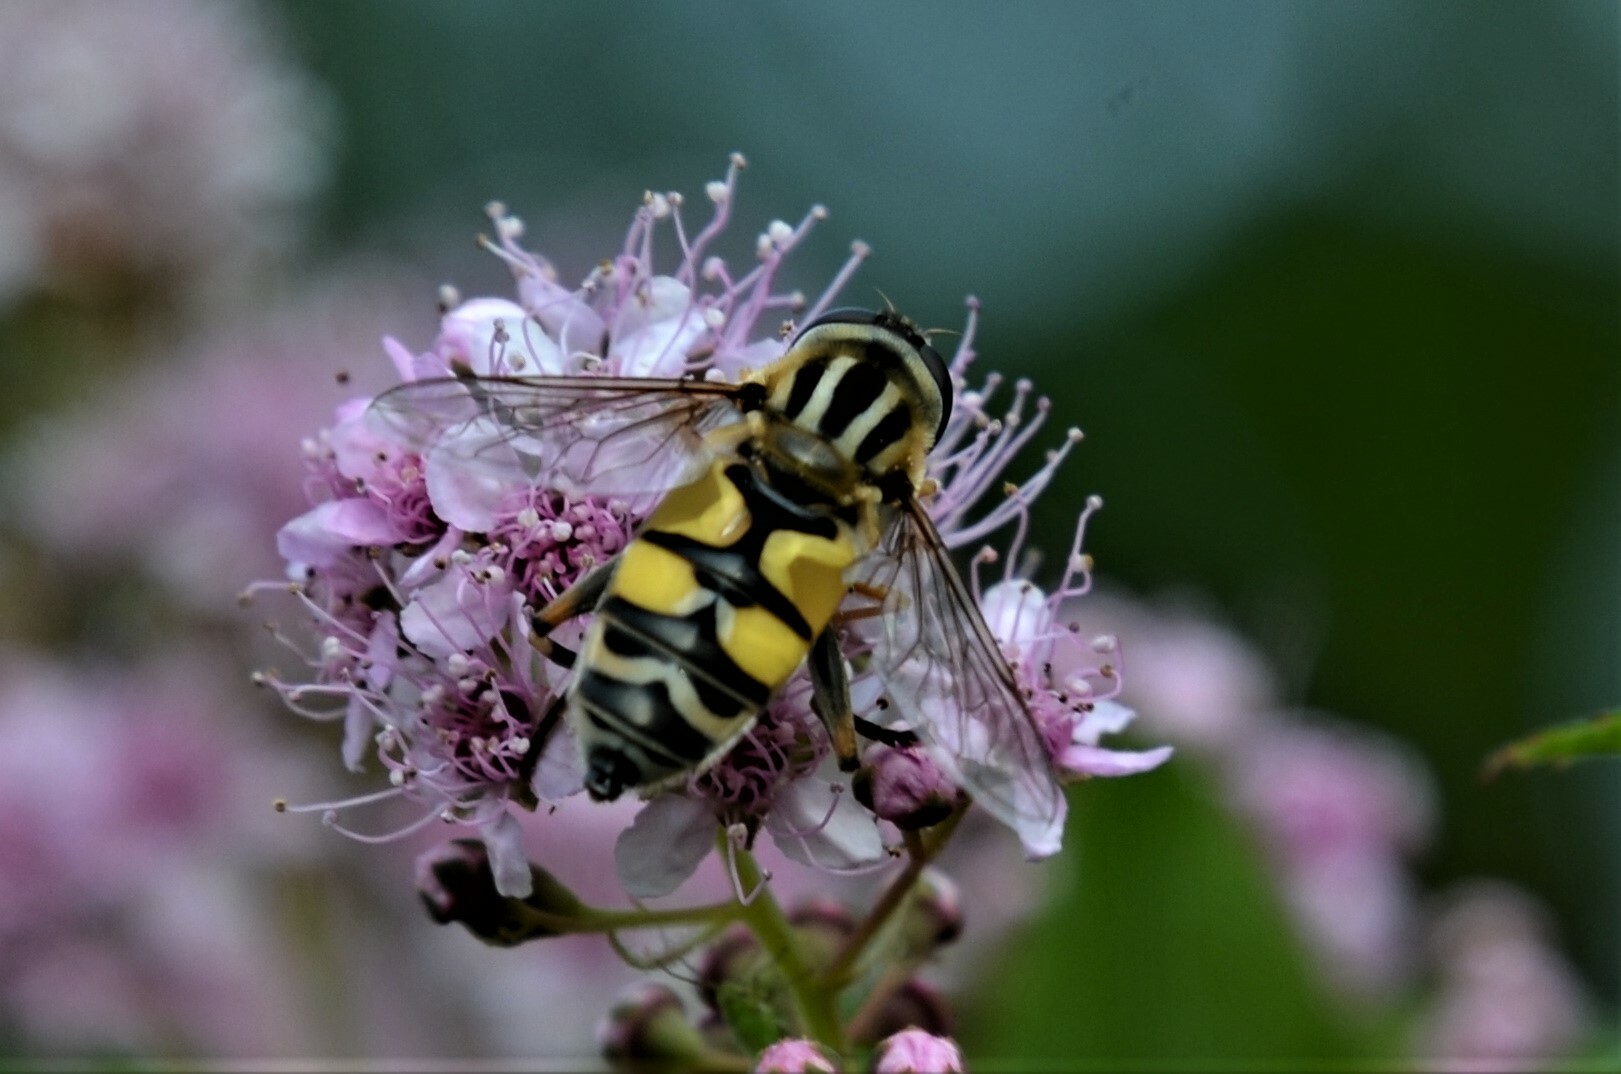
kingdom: Animalia
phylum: Arthropoda
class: Insecta
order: Diptera
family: Syrphidae
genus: Helophilus
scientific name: Helophilus trivittatus
